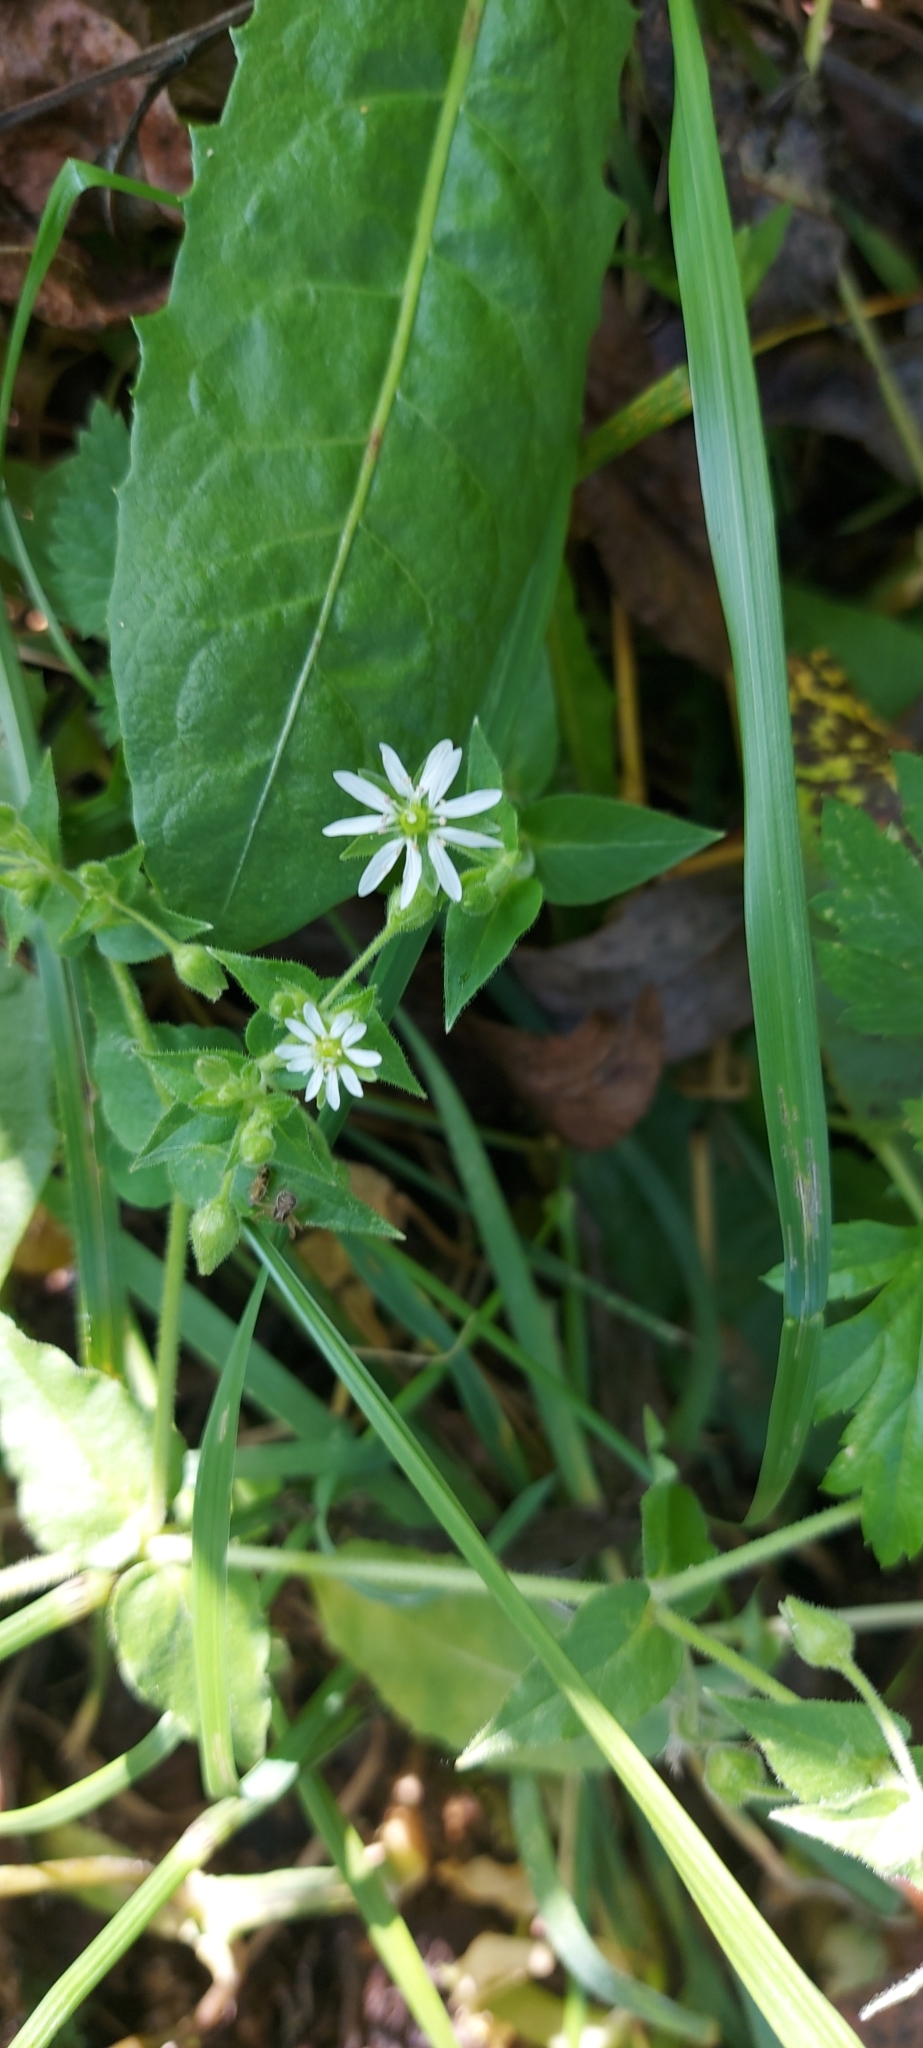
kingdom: Plantae
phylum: Tracheophyta
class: Magnoliopsida
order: Caryophyllales
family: Caryophyllaceae
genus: Stellaria
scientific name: Stellaria aquatica
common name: Water chickweed
